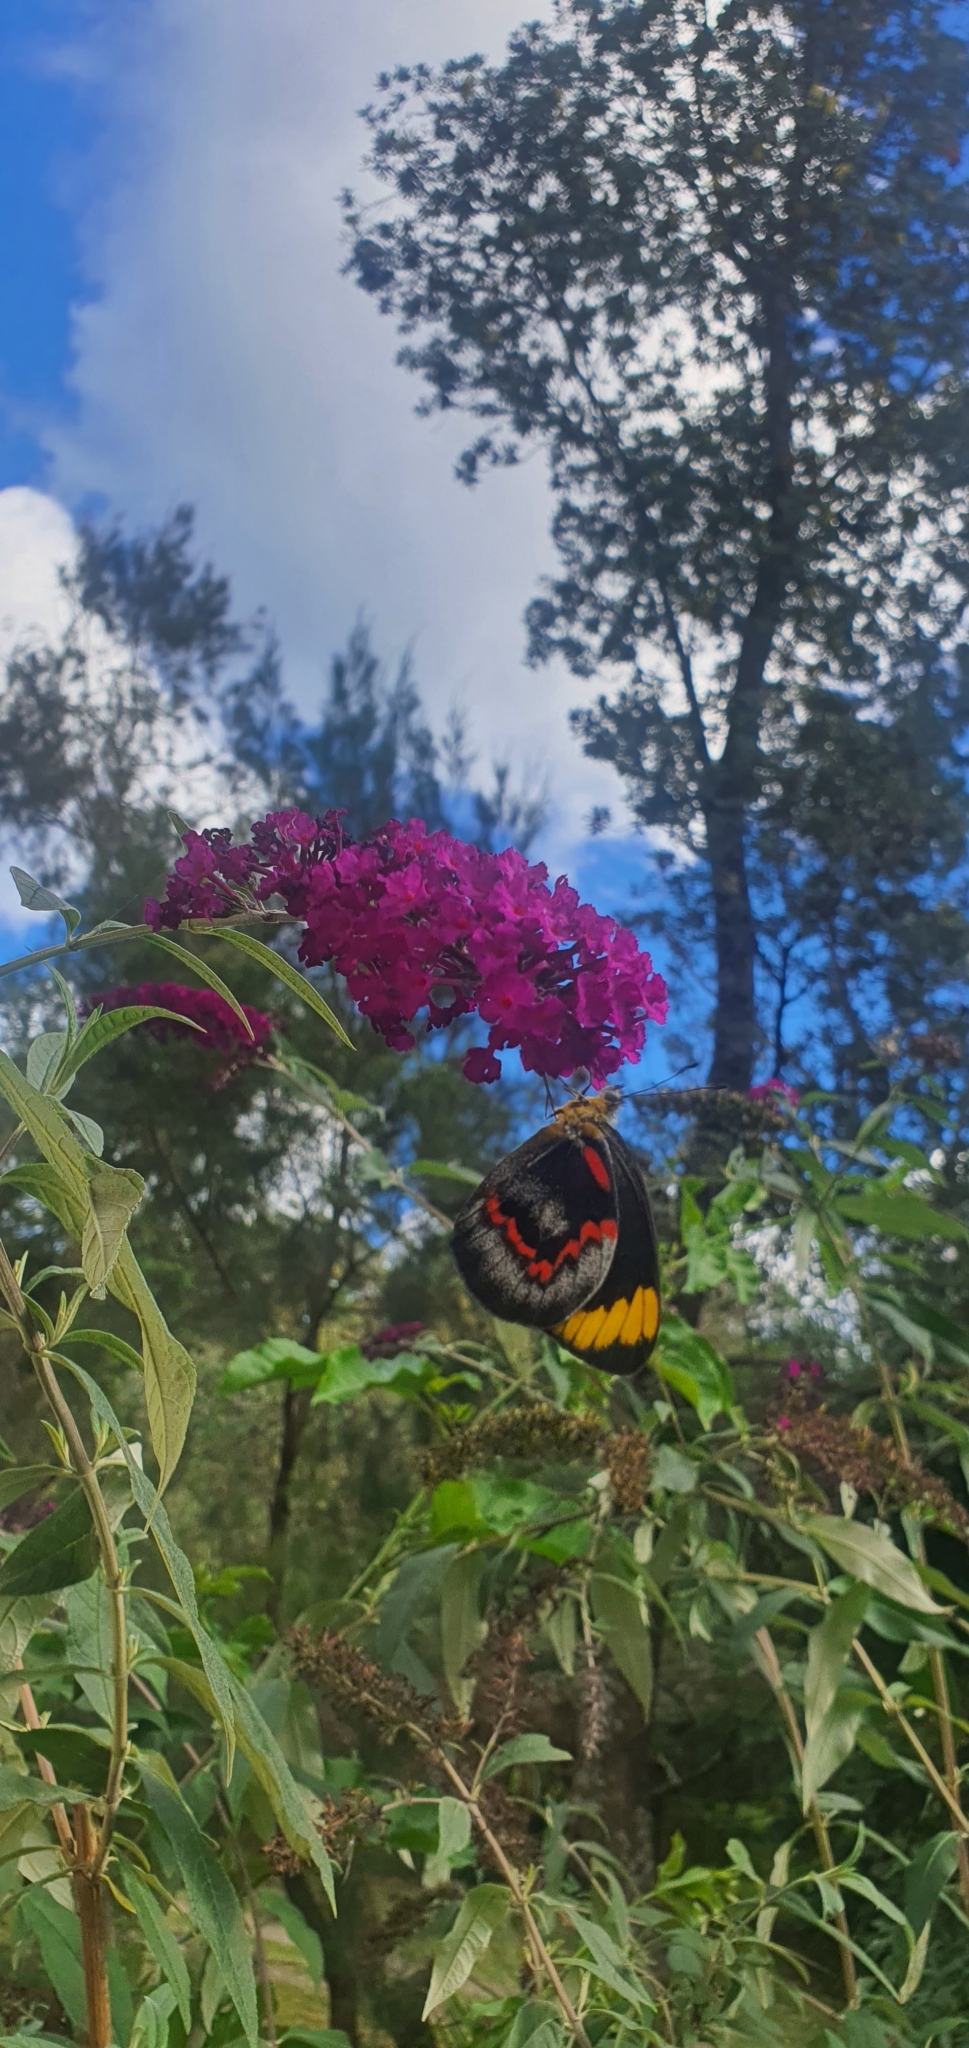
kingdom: Animalia
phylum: Arthropoda
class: Insecta
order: Lepidoptera
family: Pieridae
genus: Delias
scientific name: Delias nigrina
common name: Black jezebel
